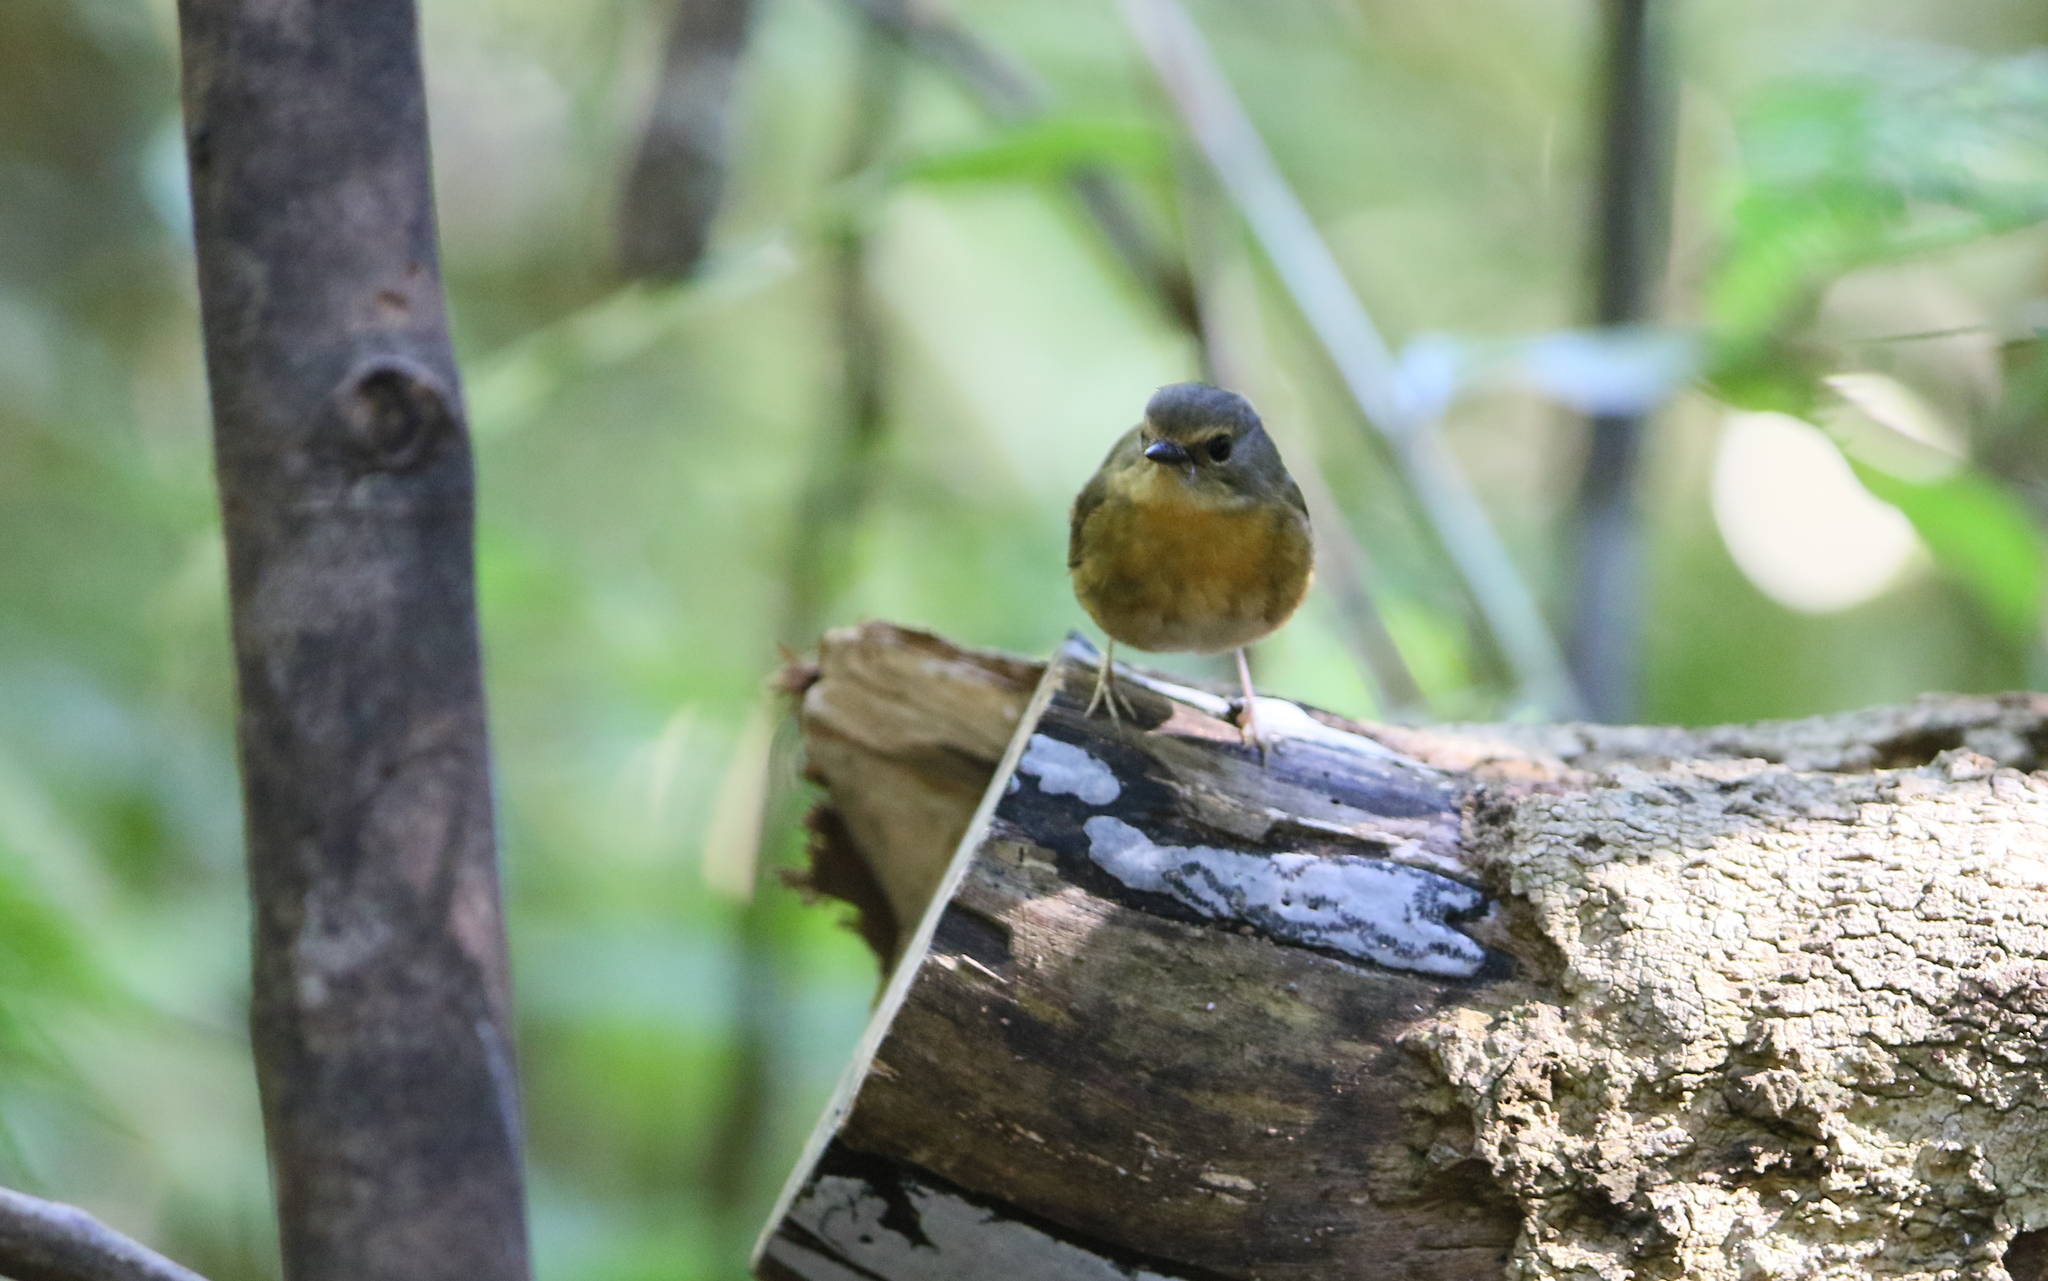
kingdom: Animalia
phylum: Chordata
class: Aves
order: Passeriformes
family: Muscicapidae
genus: Ficedula
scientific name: Ficedula hyperythra
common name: Snowy-browed flycatcher
